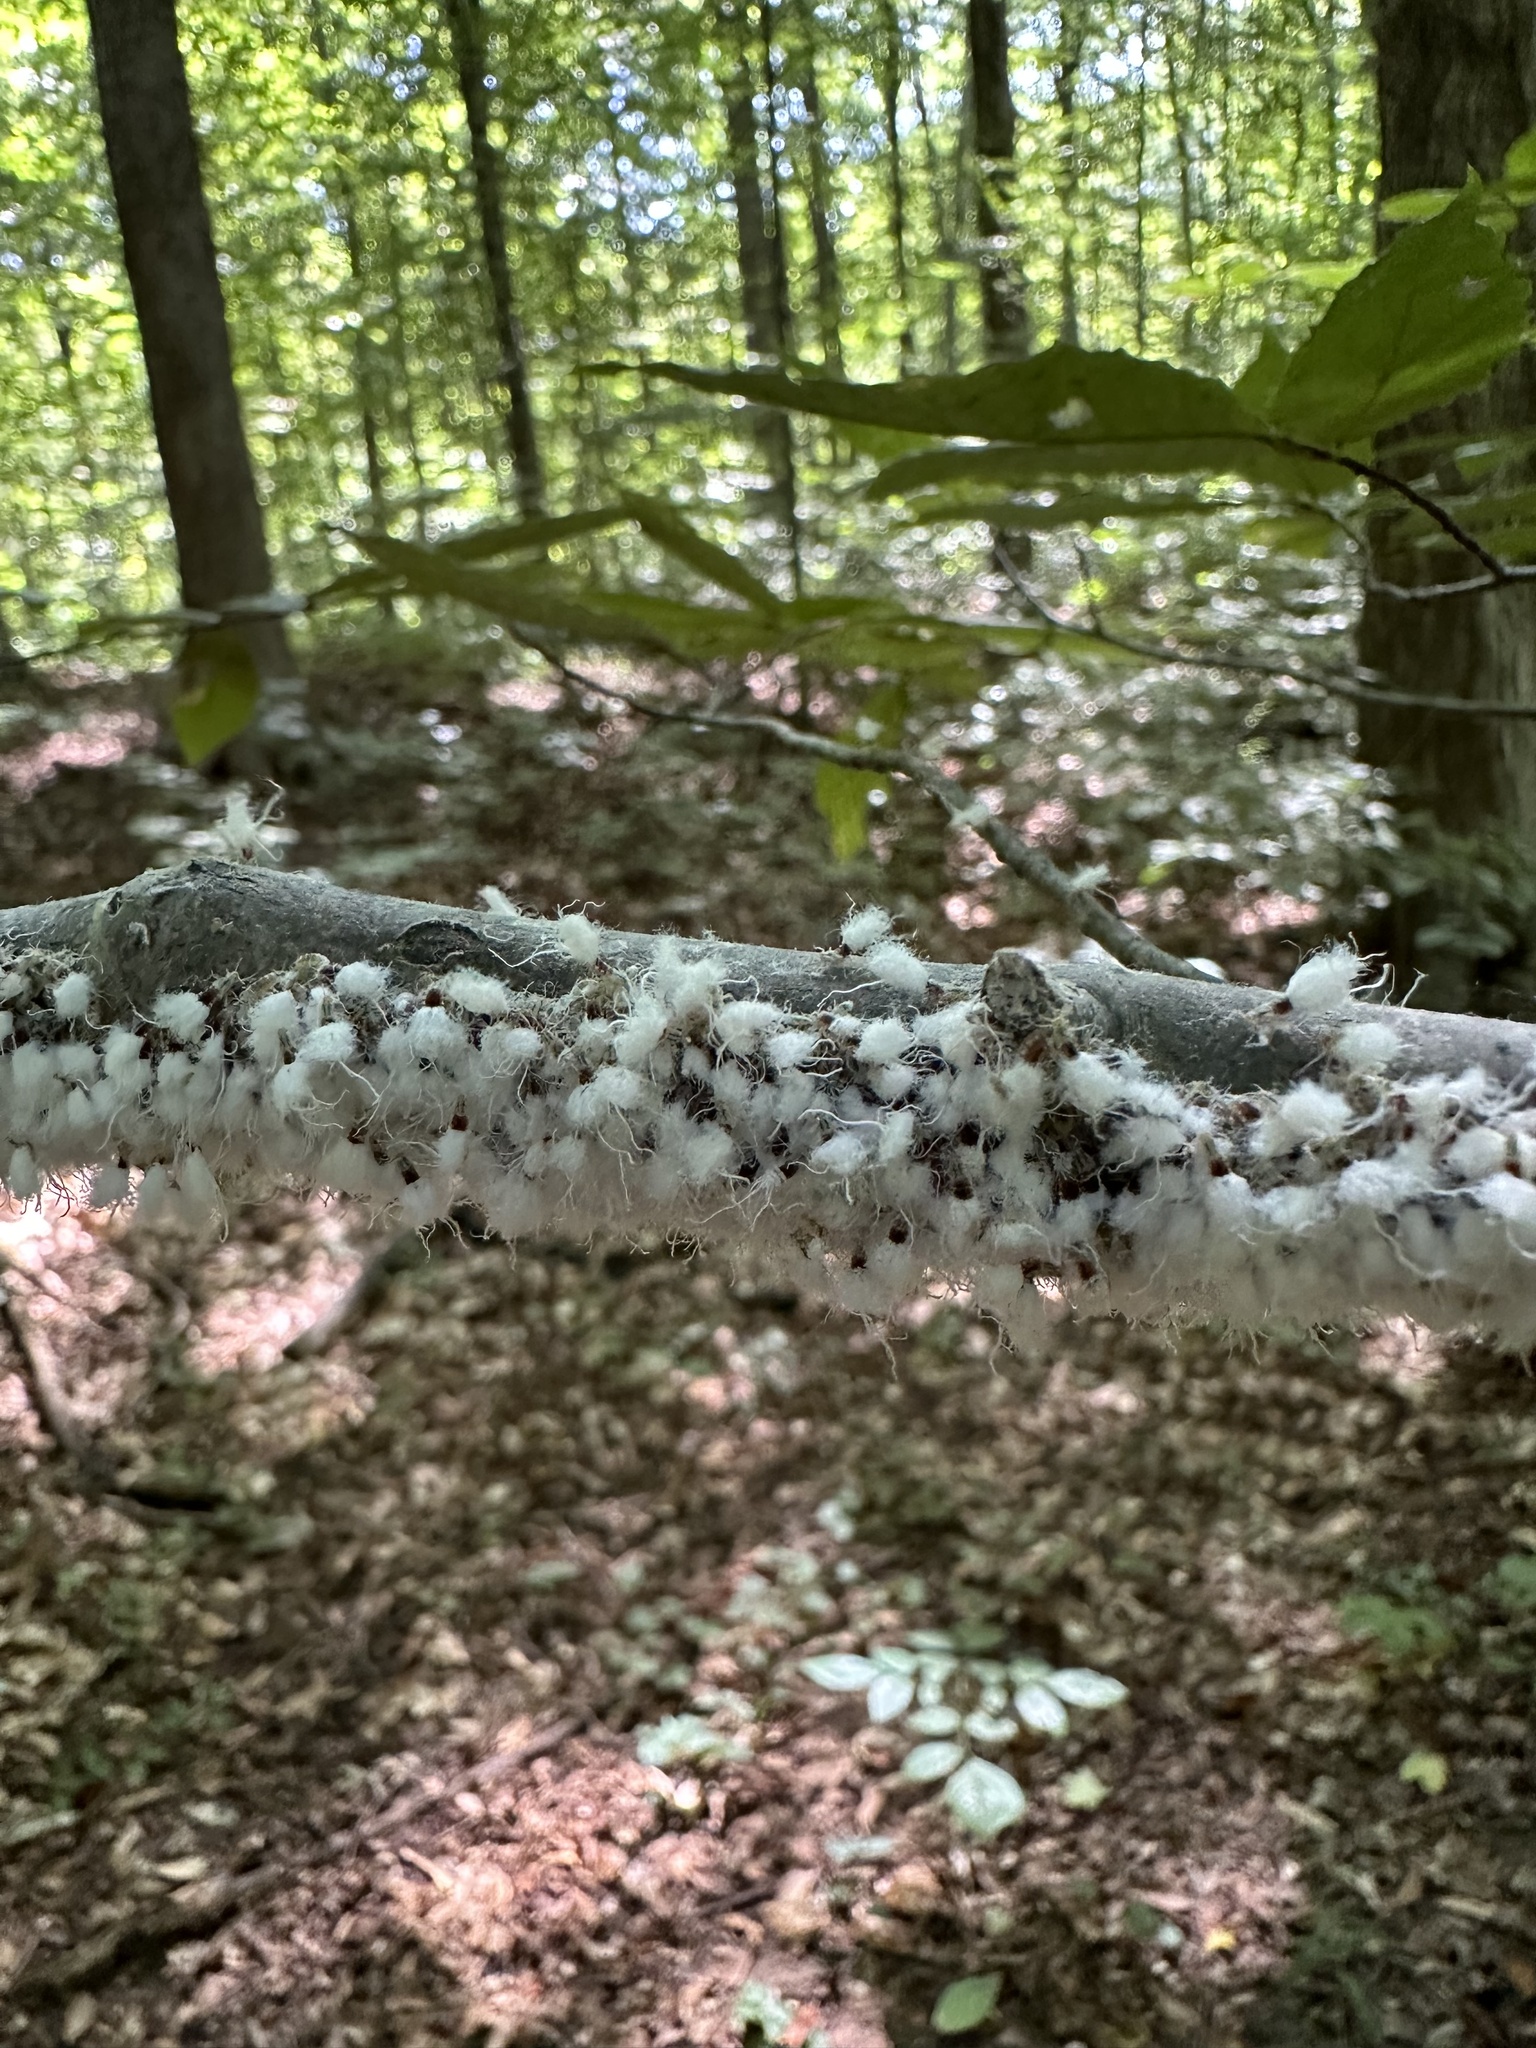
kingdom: Animalia
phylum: Arthropoda
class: Insecta
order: Hemiptera
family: Aphididae
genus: Grylloprociphilus
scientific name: Grylloprociphilus imbricator
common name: Beech blight aphid
